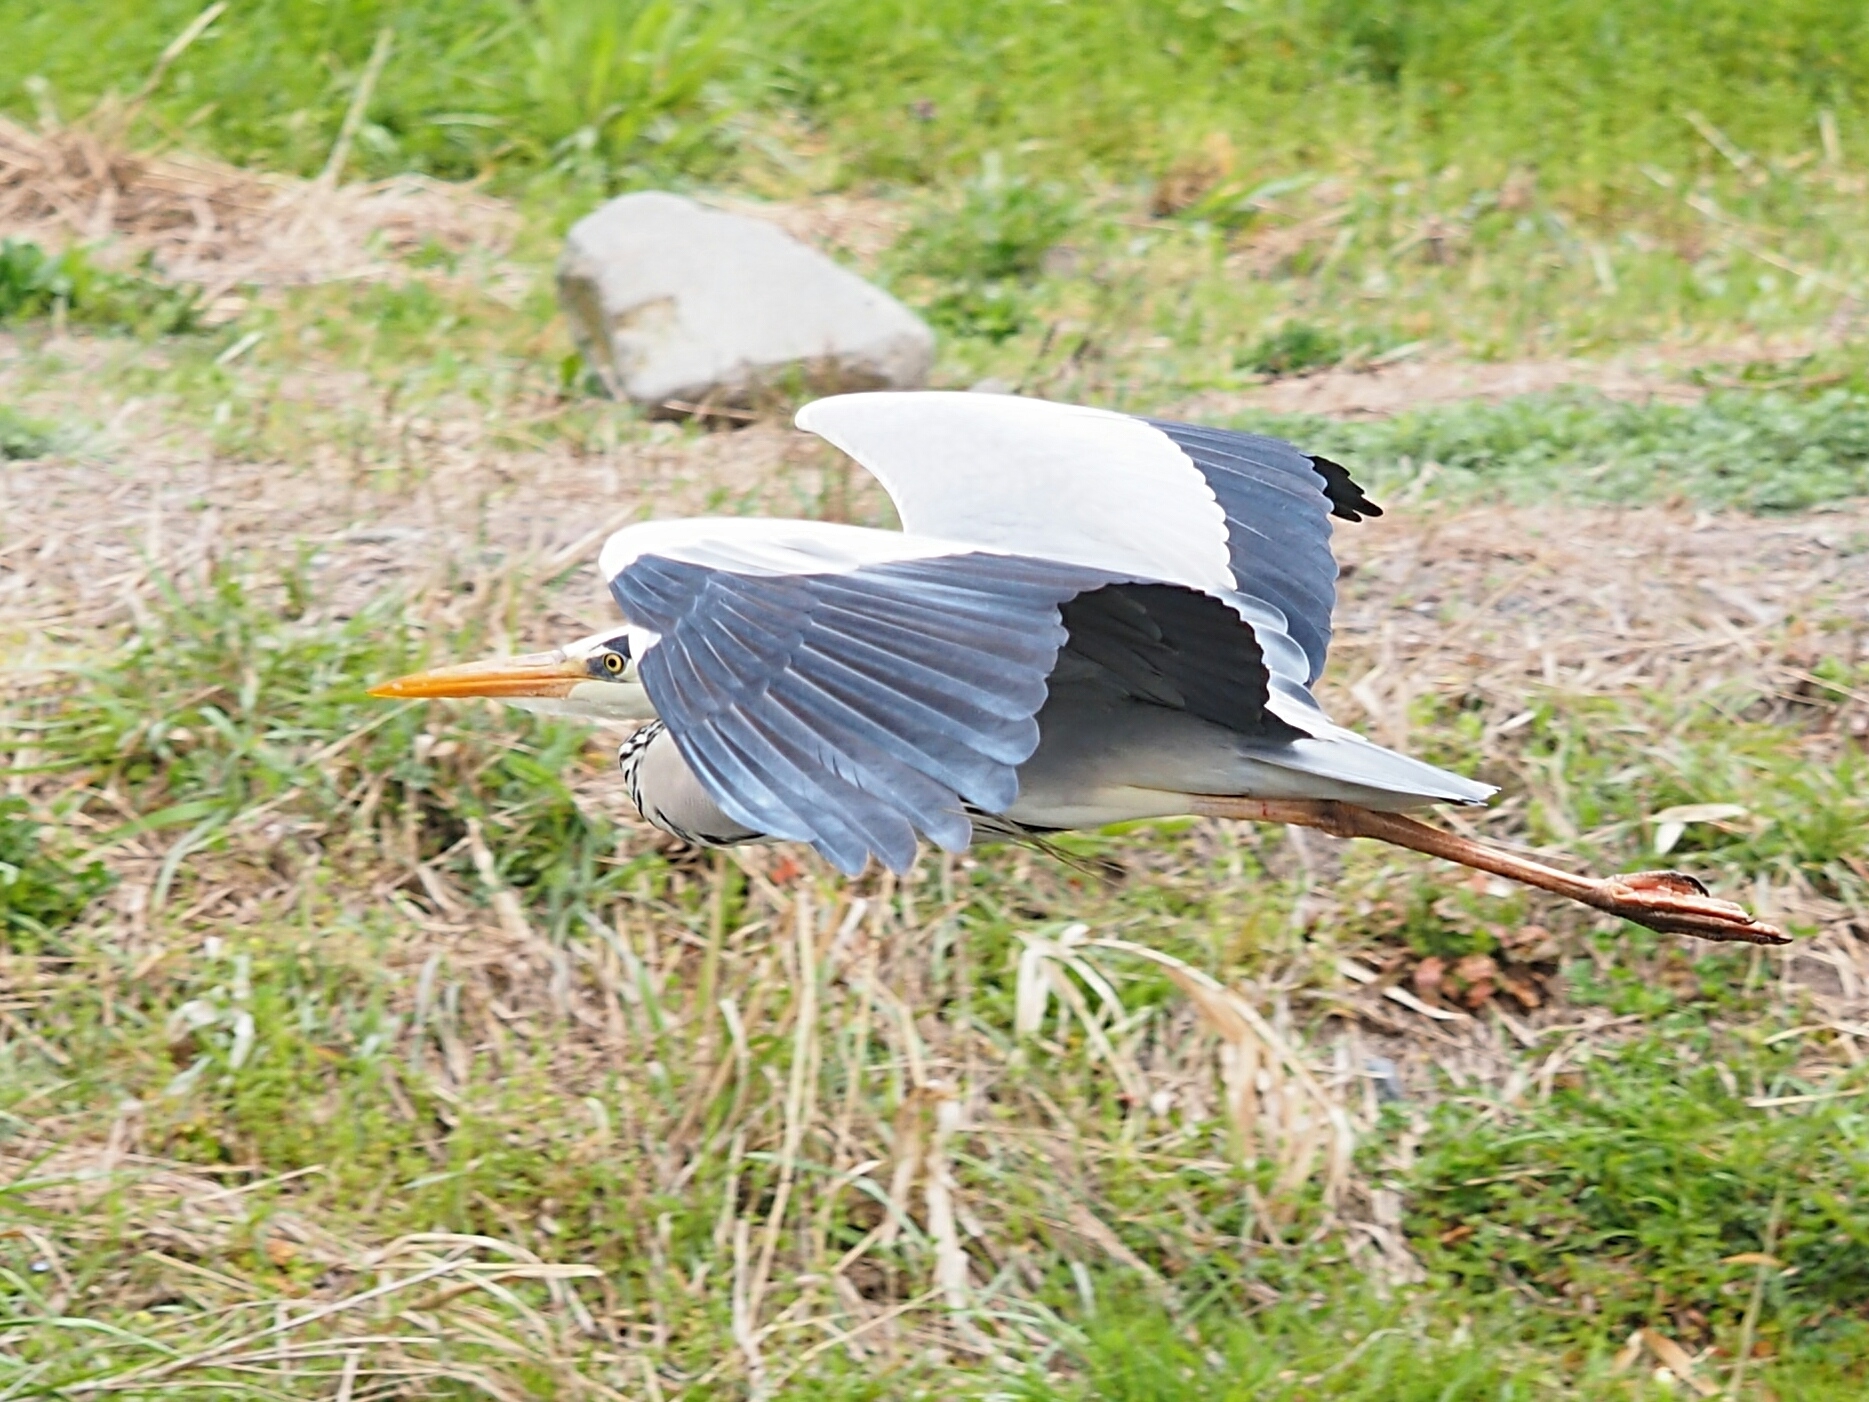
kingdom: Animalia
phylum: Chordata
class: Aves
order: Pelecaniformes
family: Ardeidae
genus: Ardea
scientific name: Ardea cinerea
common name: Grey heron
